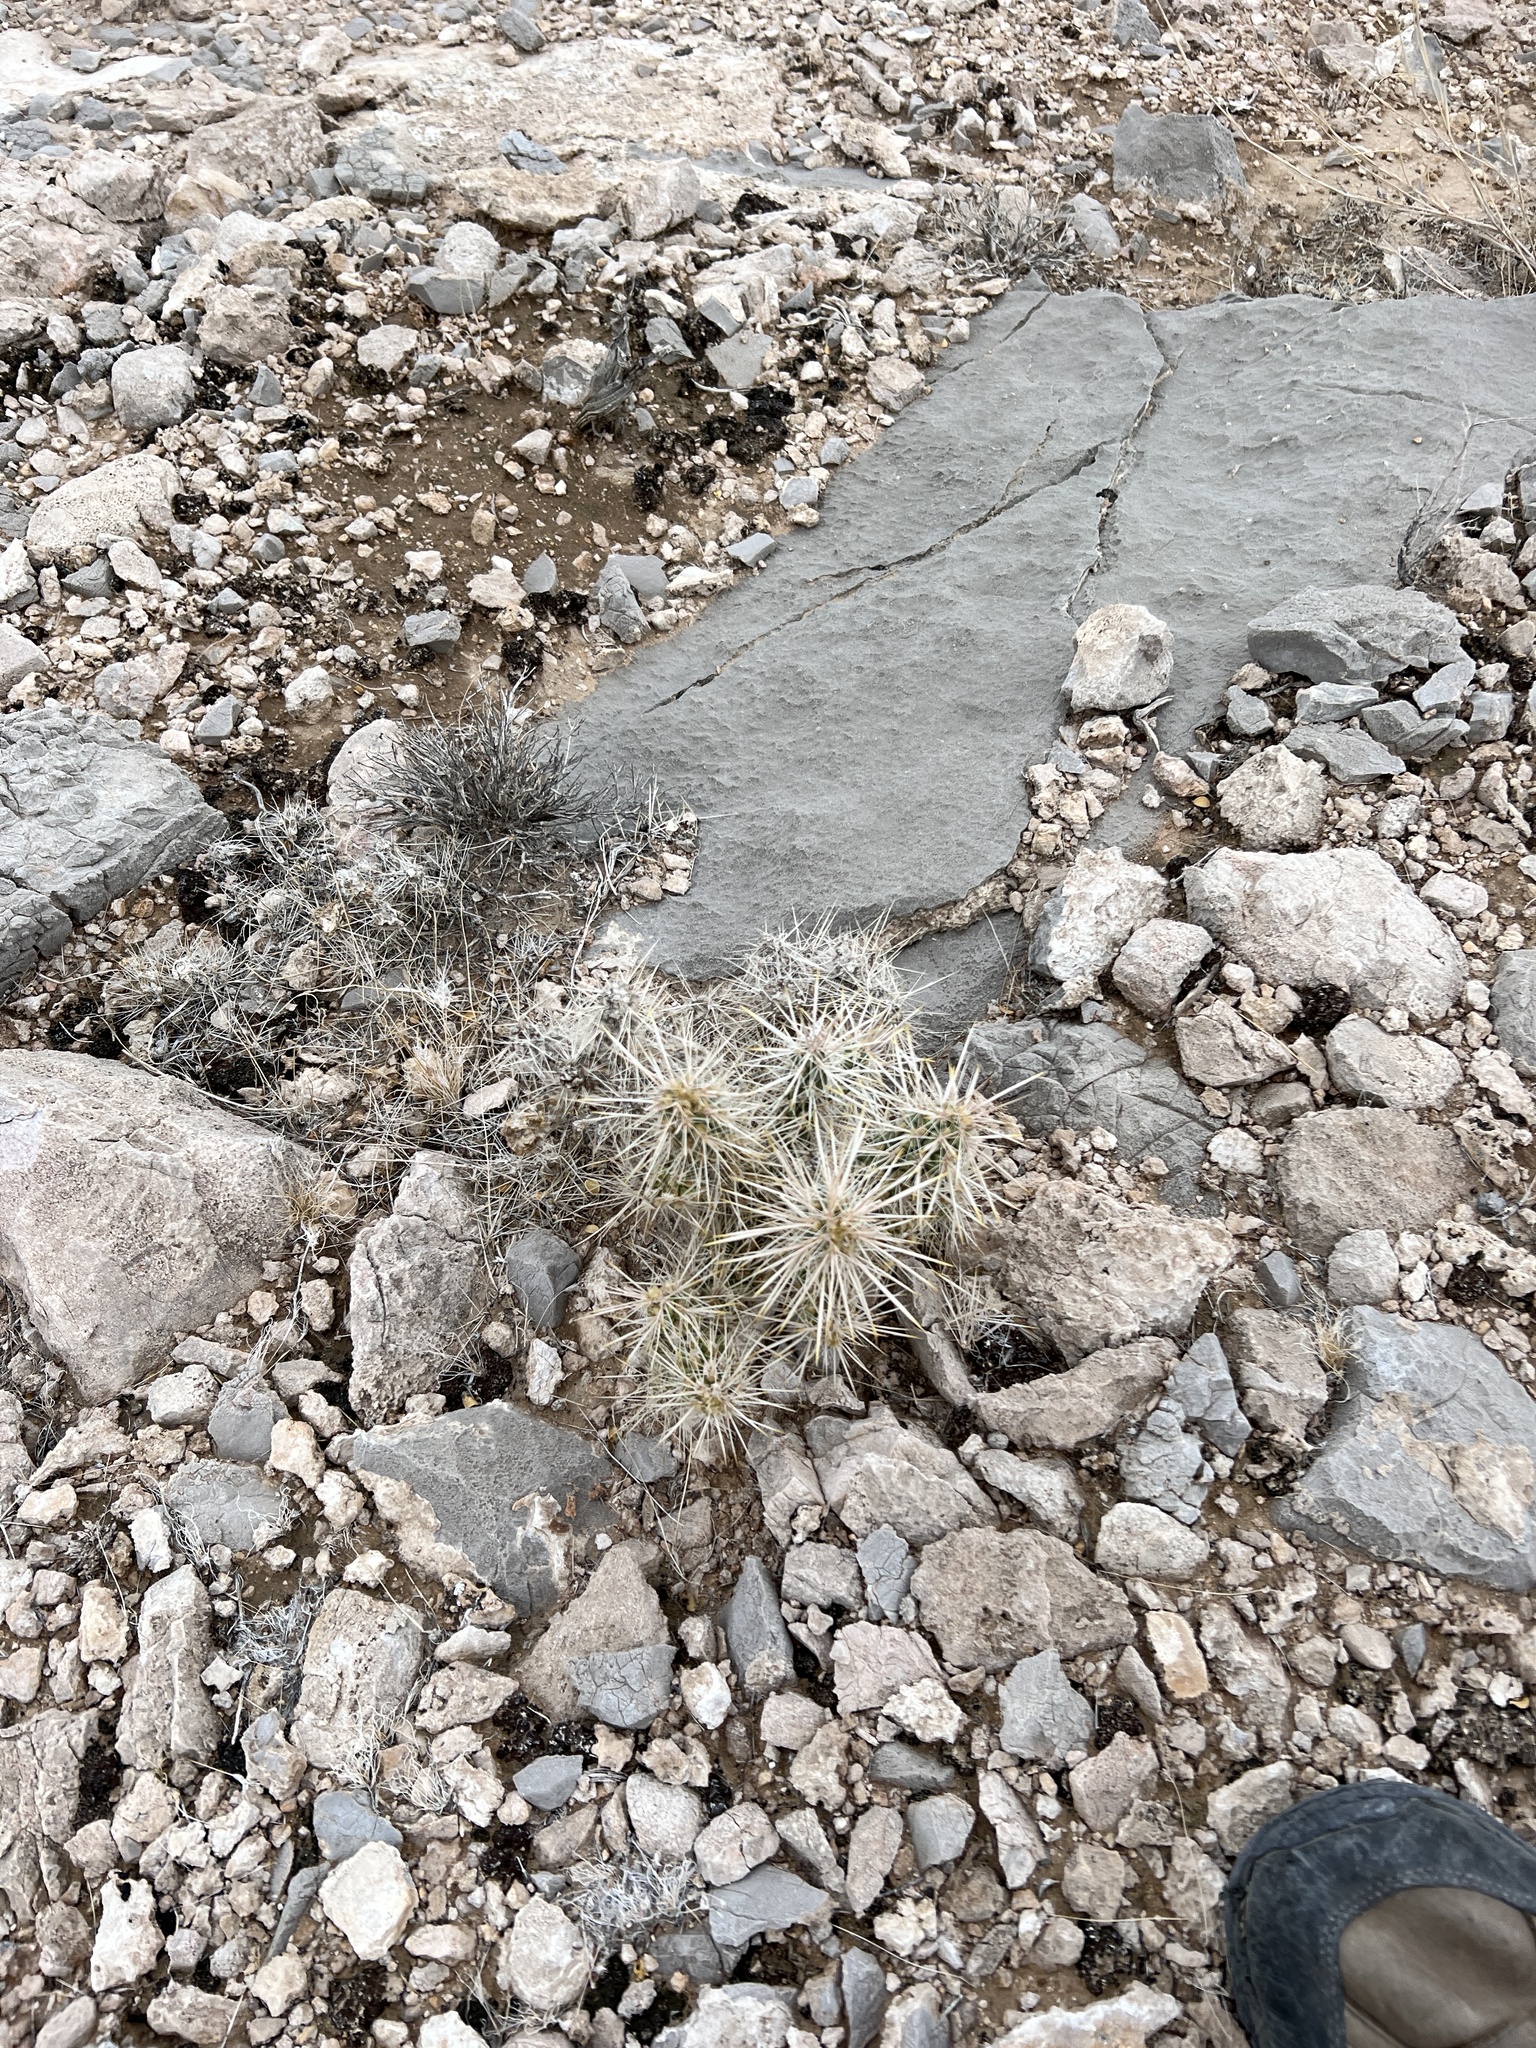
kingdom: Plantae
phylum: Tracheophyta
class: Magnoliopsida
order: Caryophyllales
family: Cactaceae
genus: Cylindropuntia
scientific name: Cylindropuntia echinocarpa
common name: Ground cholla
